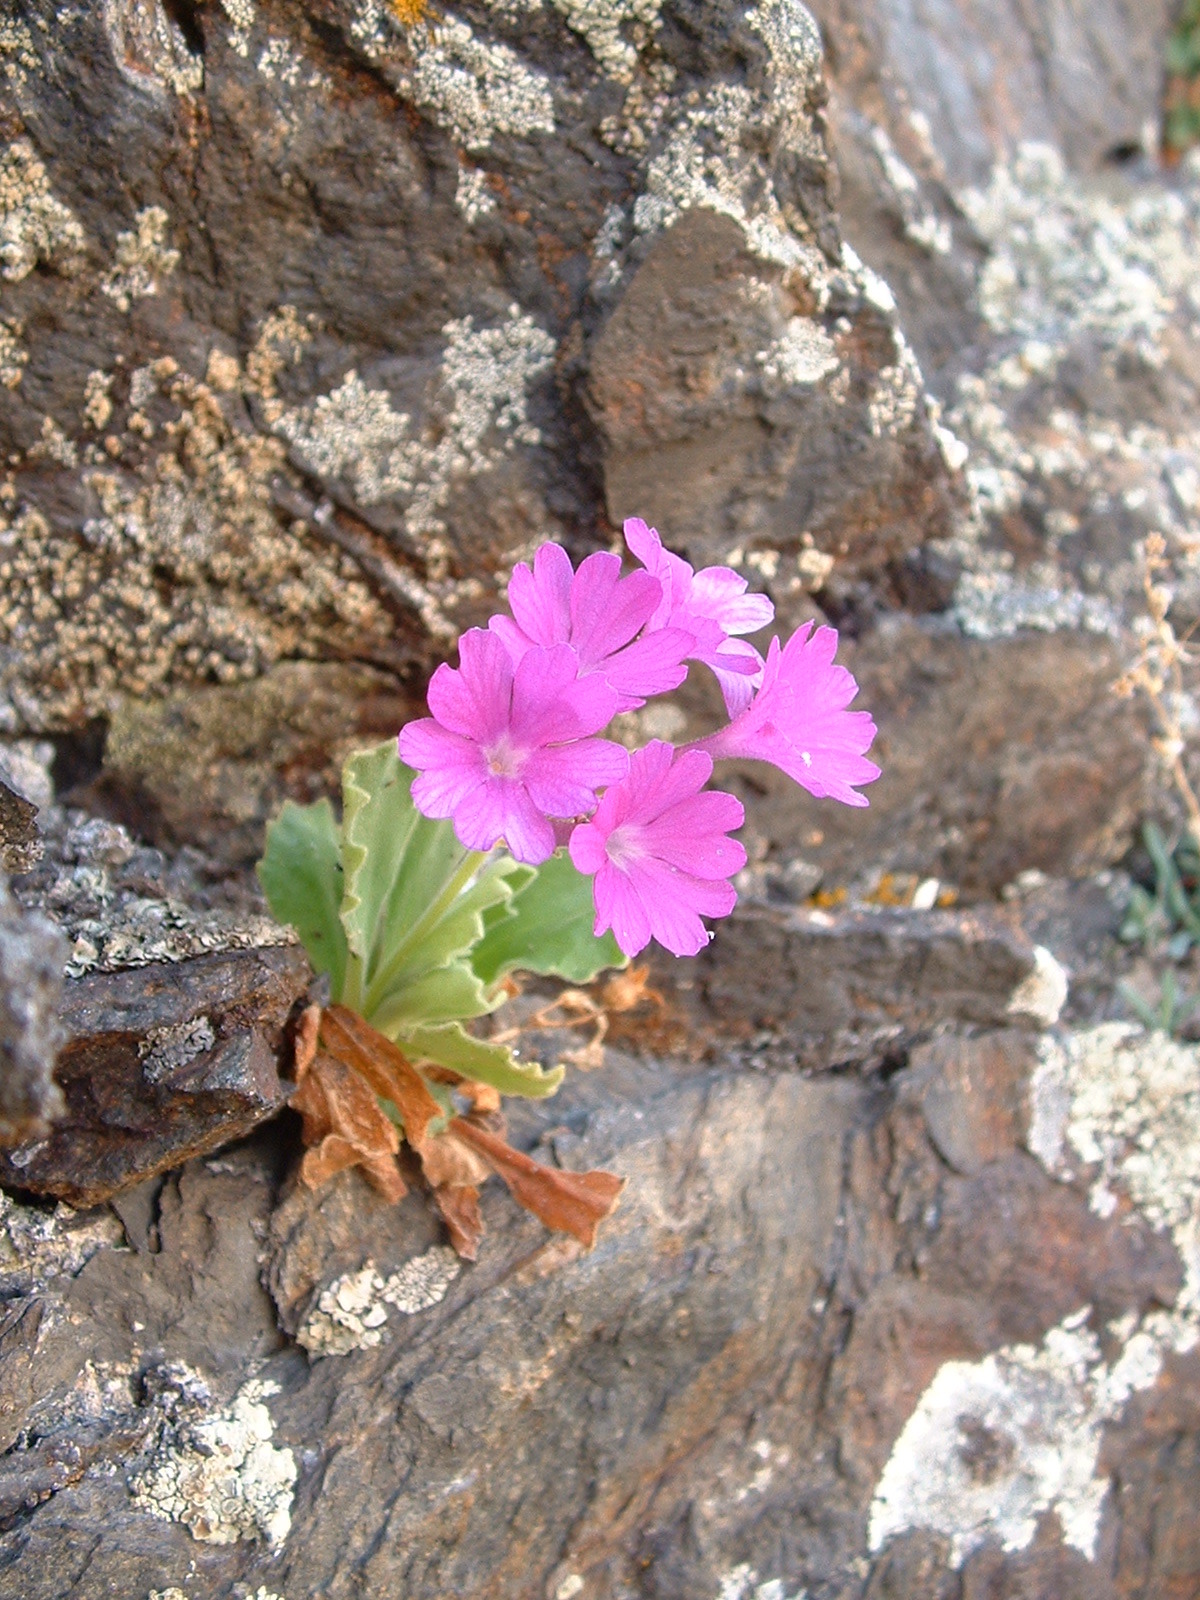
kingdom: Plantae
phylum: Tracheophyta
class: Magnoliopsida
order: Ericales
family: Primulaceae
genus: Primula
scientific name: Primula hirsuta
